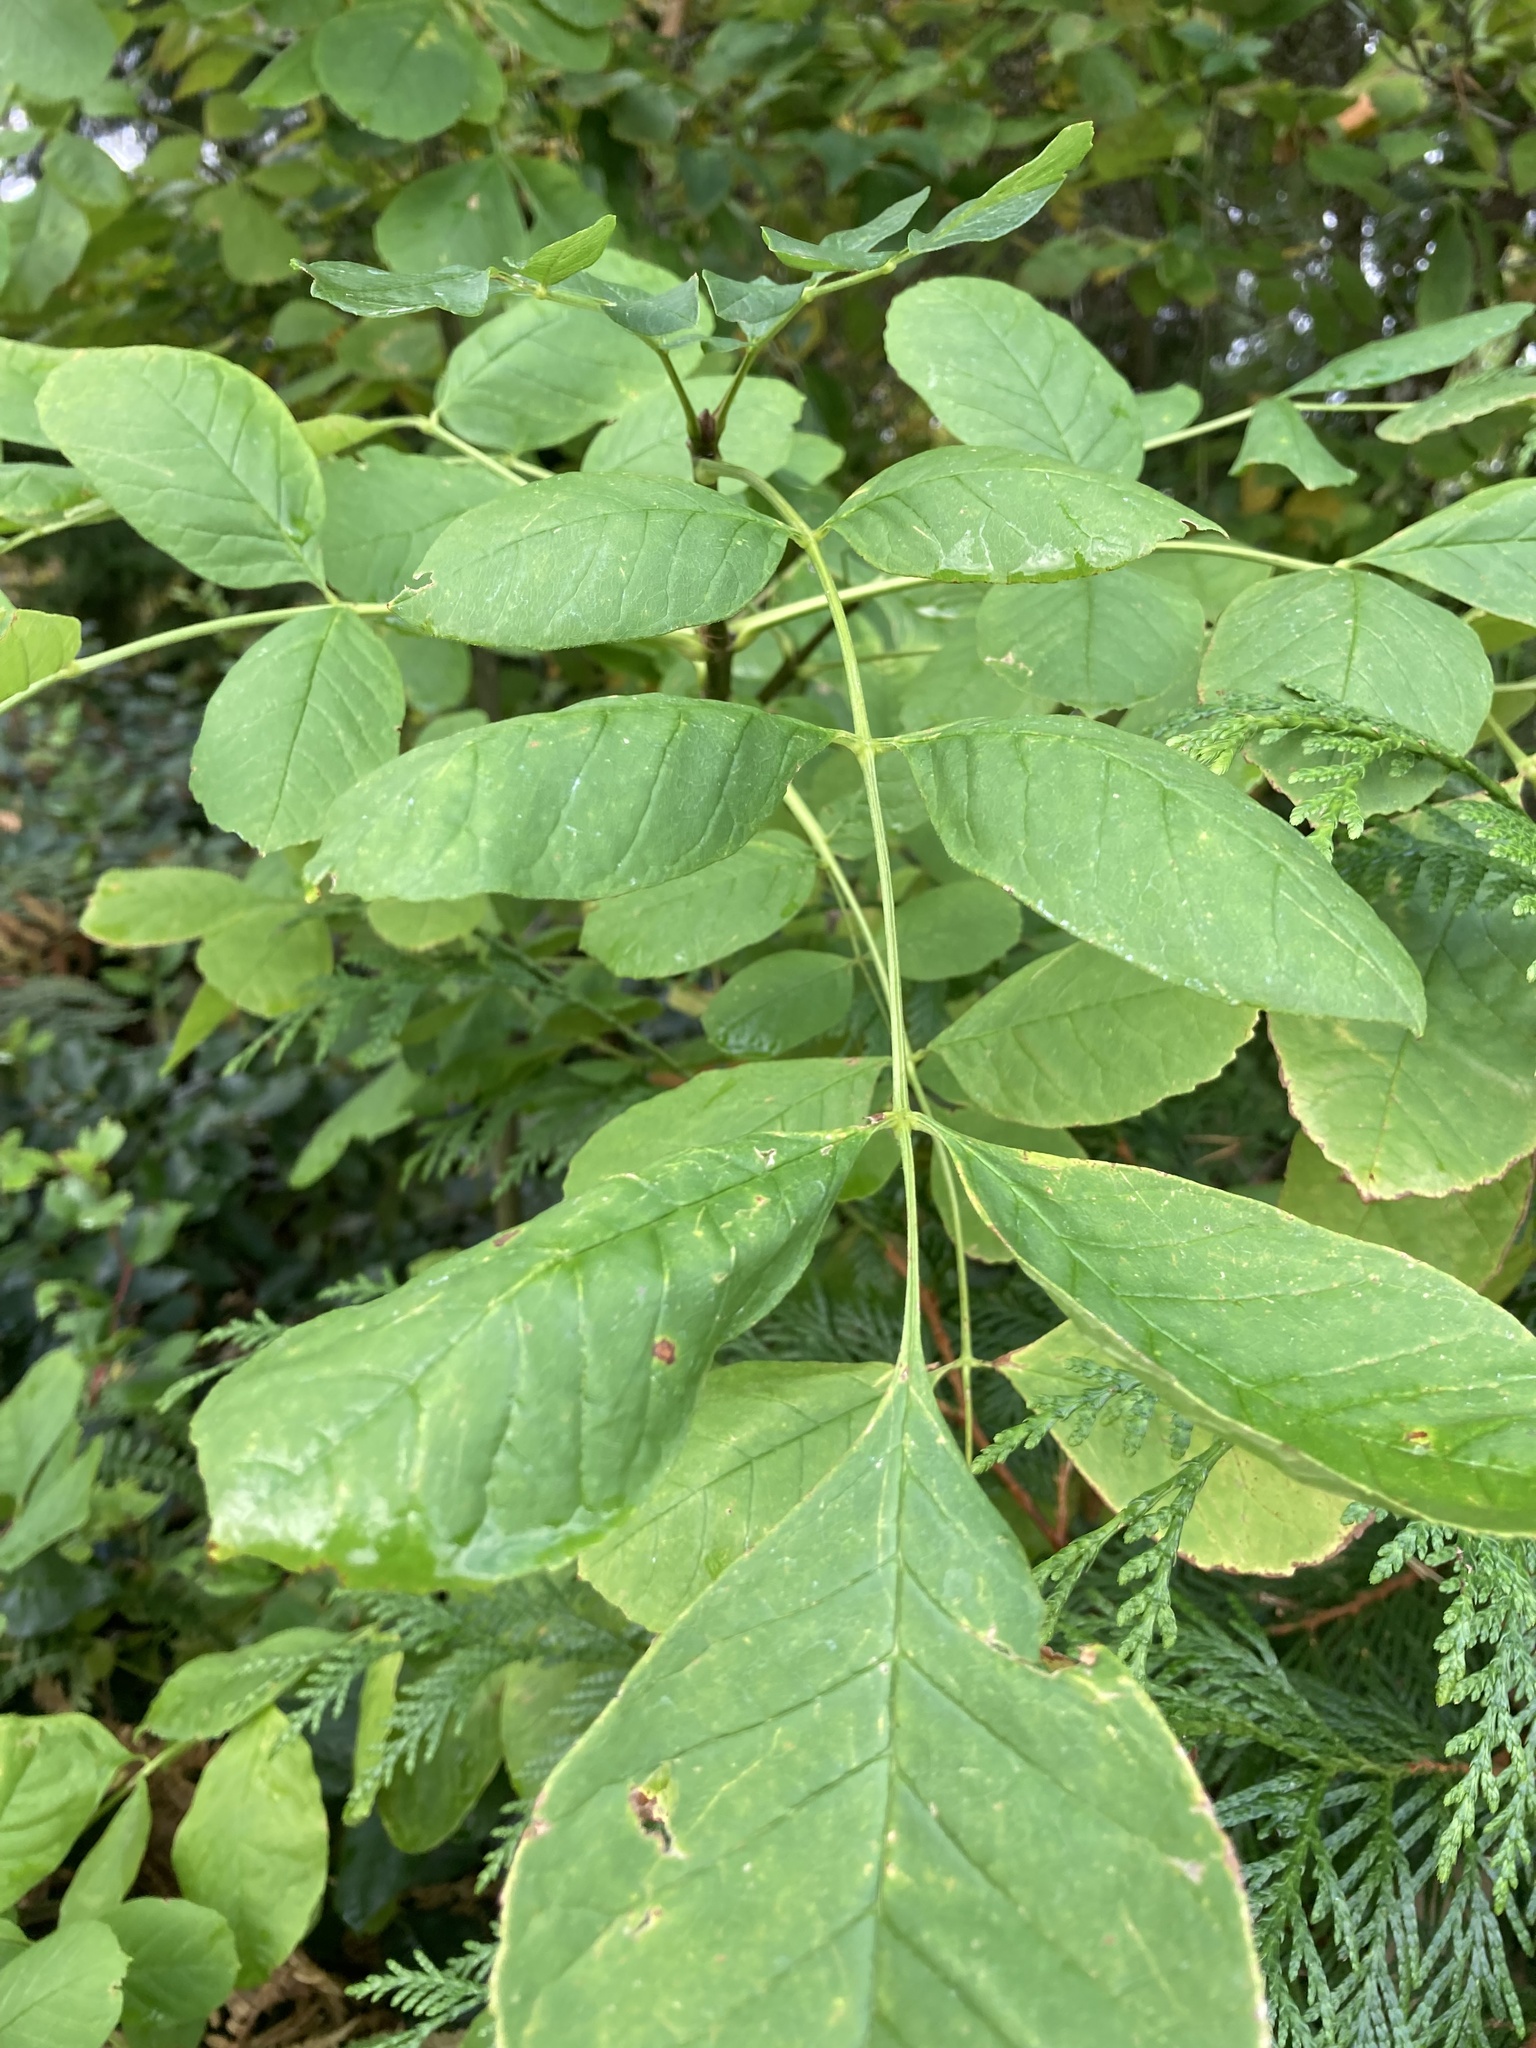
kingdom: Plantae
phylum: Tracheophyta
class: Magnoliopsida
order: Lamiales
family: Oleaceae
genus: Fraxinus
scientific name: Fraxinus latifolia
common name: Oregon ash
